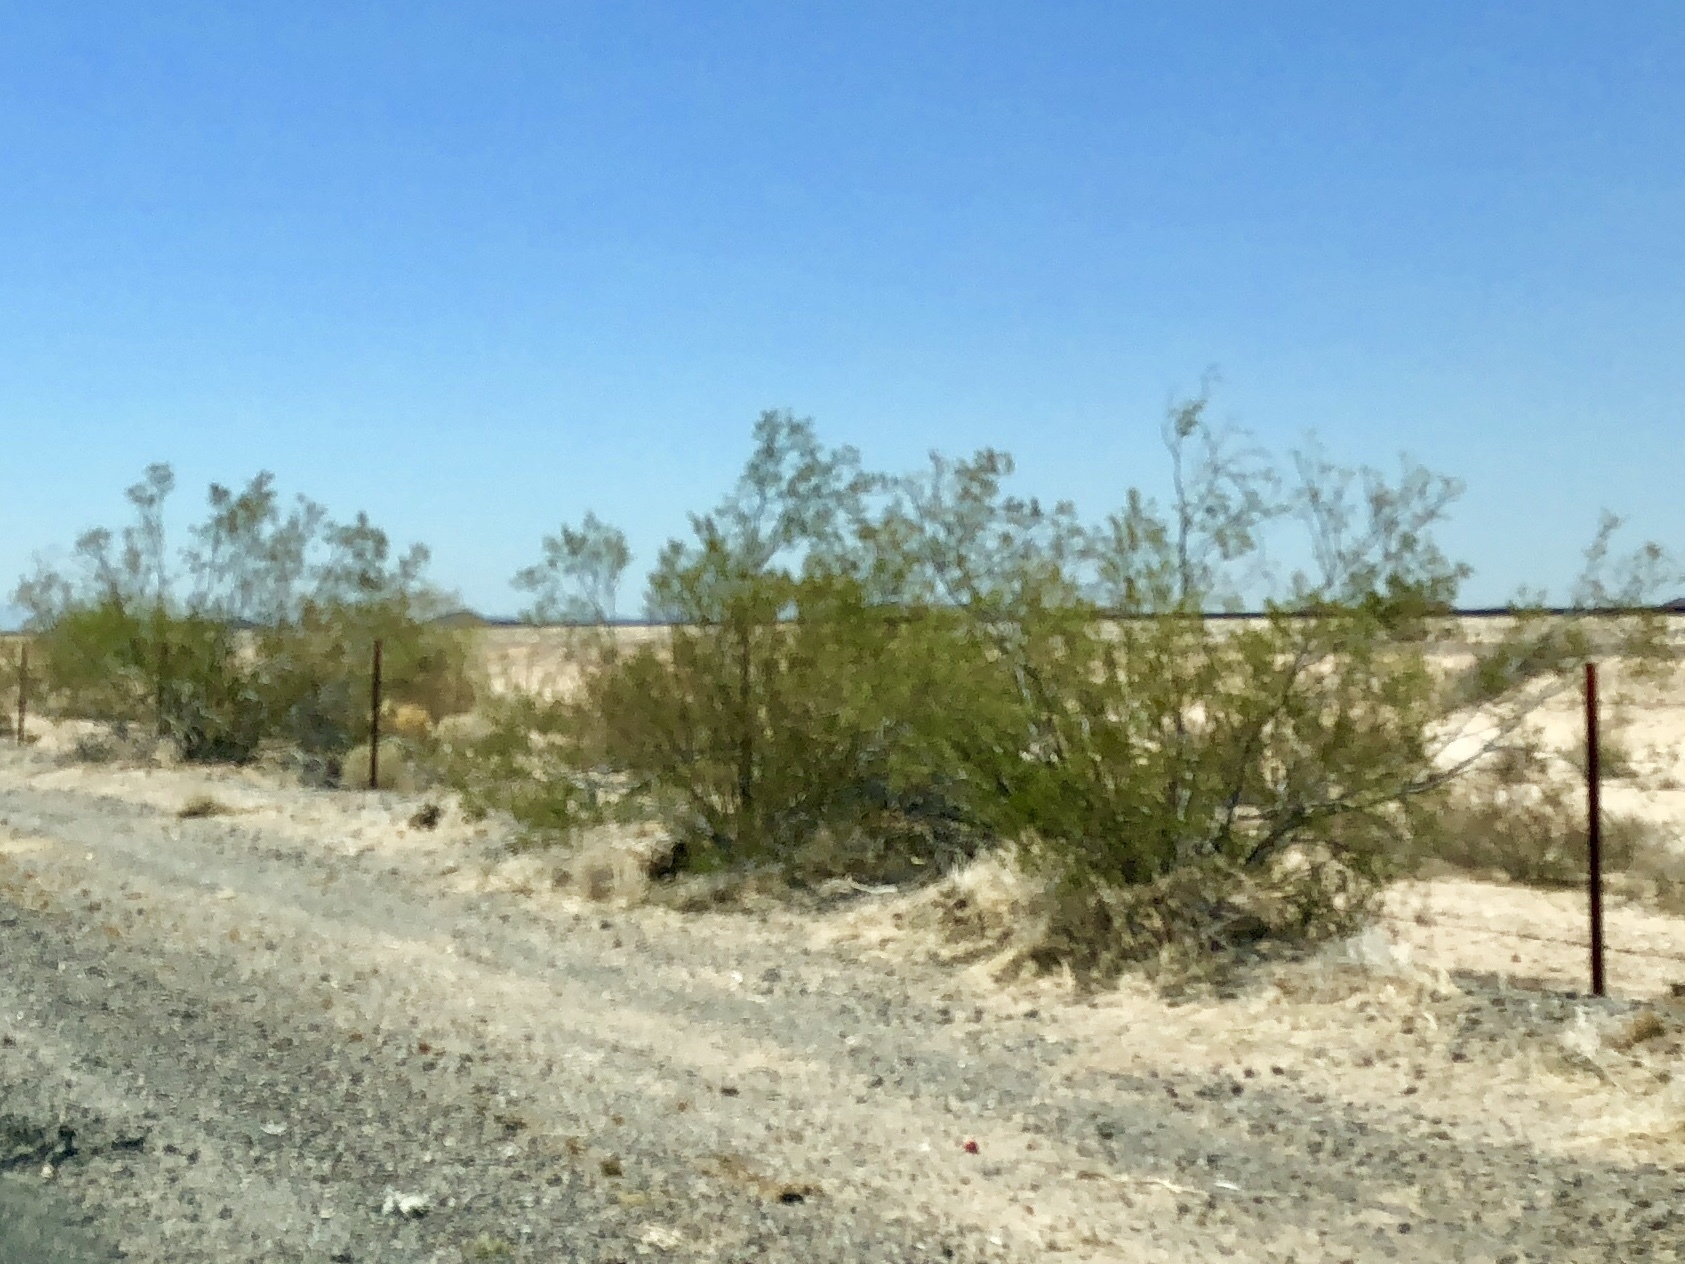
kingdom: Plantae
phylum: Tracheophyta
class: Magnoliopsida
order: Zygophyllales
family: Zygophyllaceae
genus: Larrea
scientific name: Larrea tridentata
